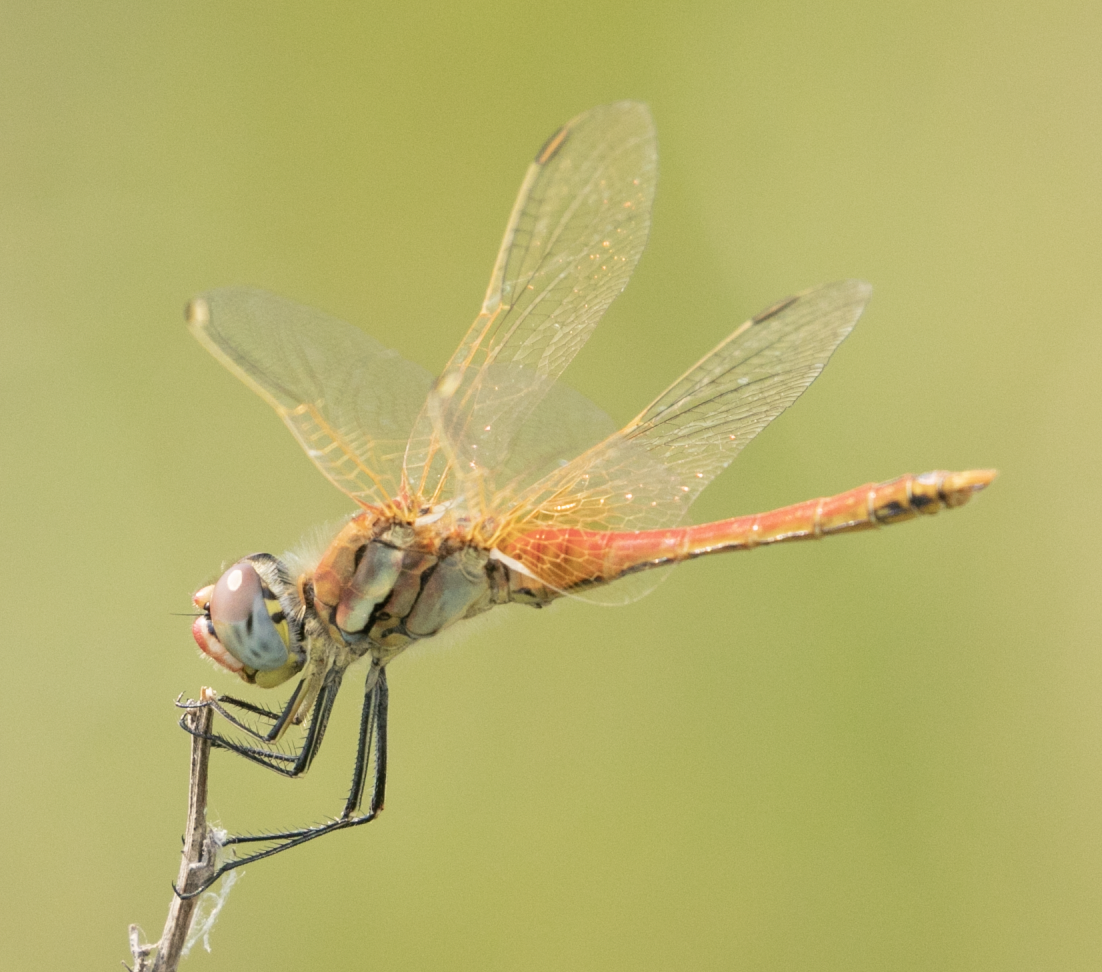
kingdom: Animalia
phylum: Arthropoda
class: Insecta
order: Odonata
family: Libellulidae
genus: Sympetrum
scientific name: Sympetrum fonscolombii
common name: Red-veined darter
